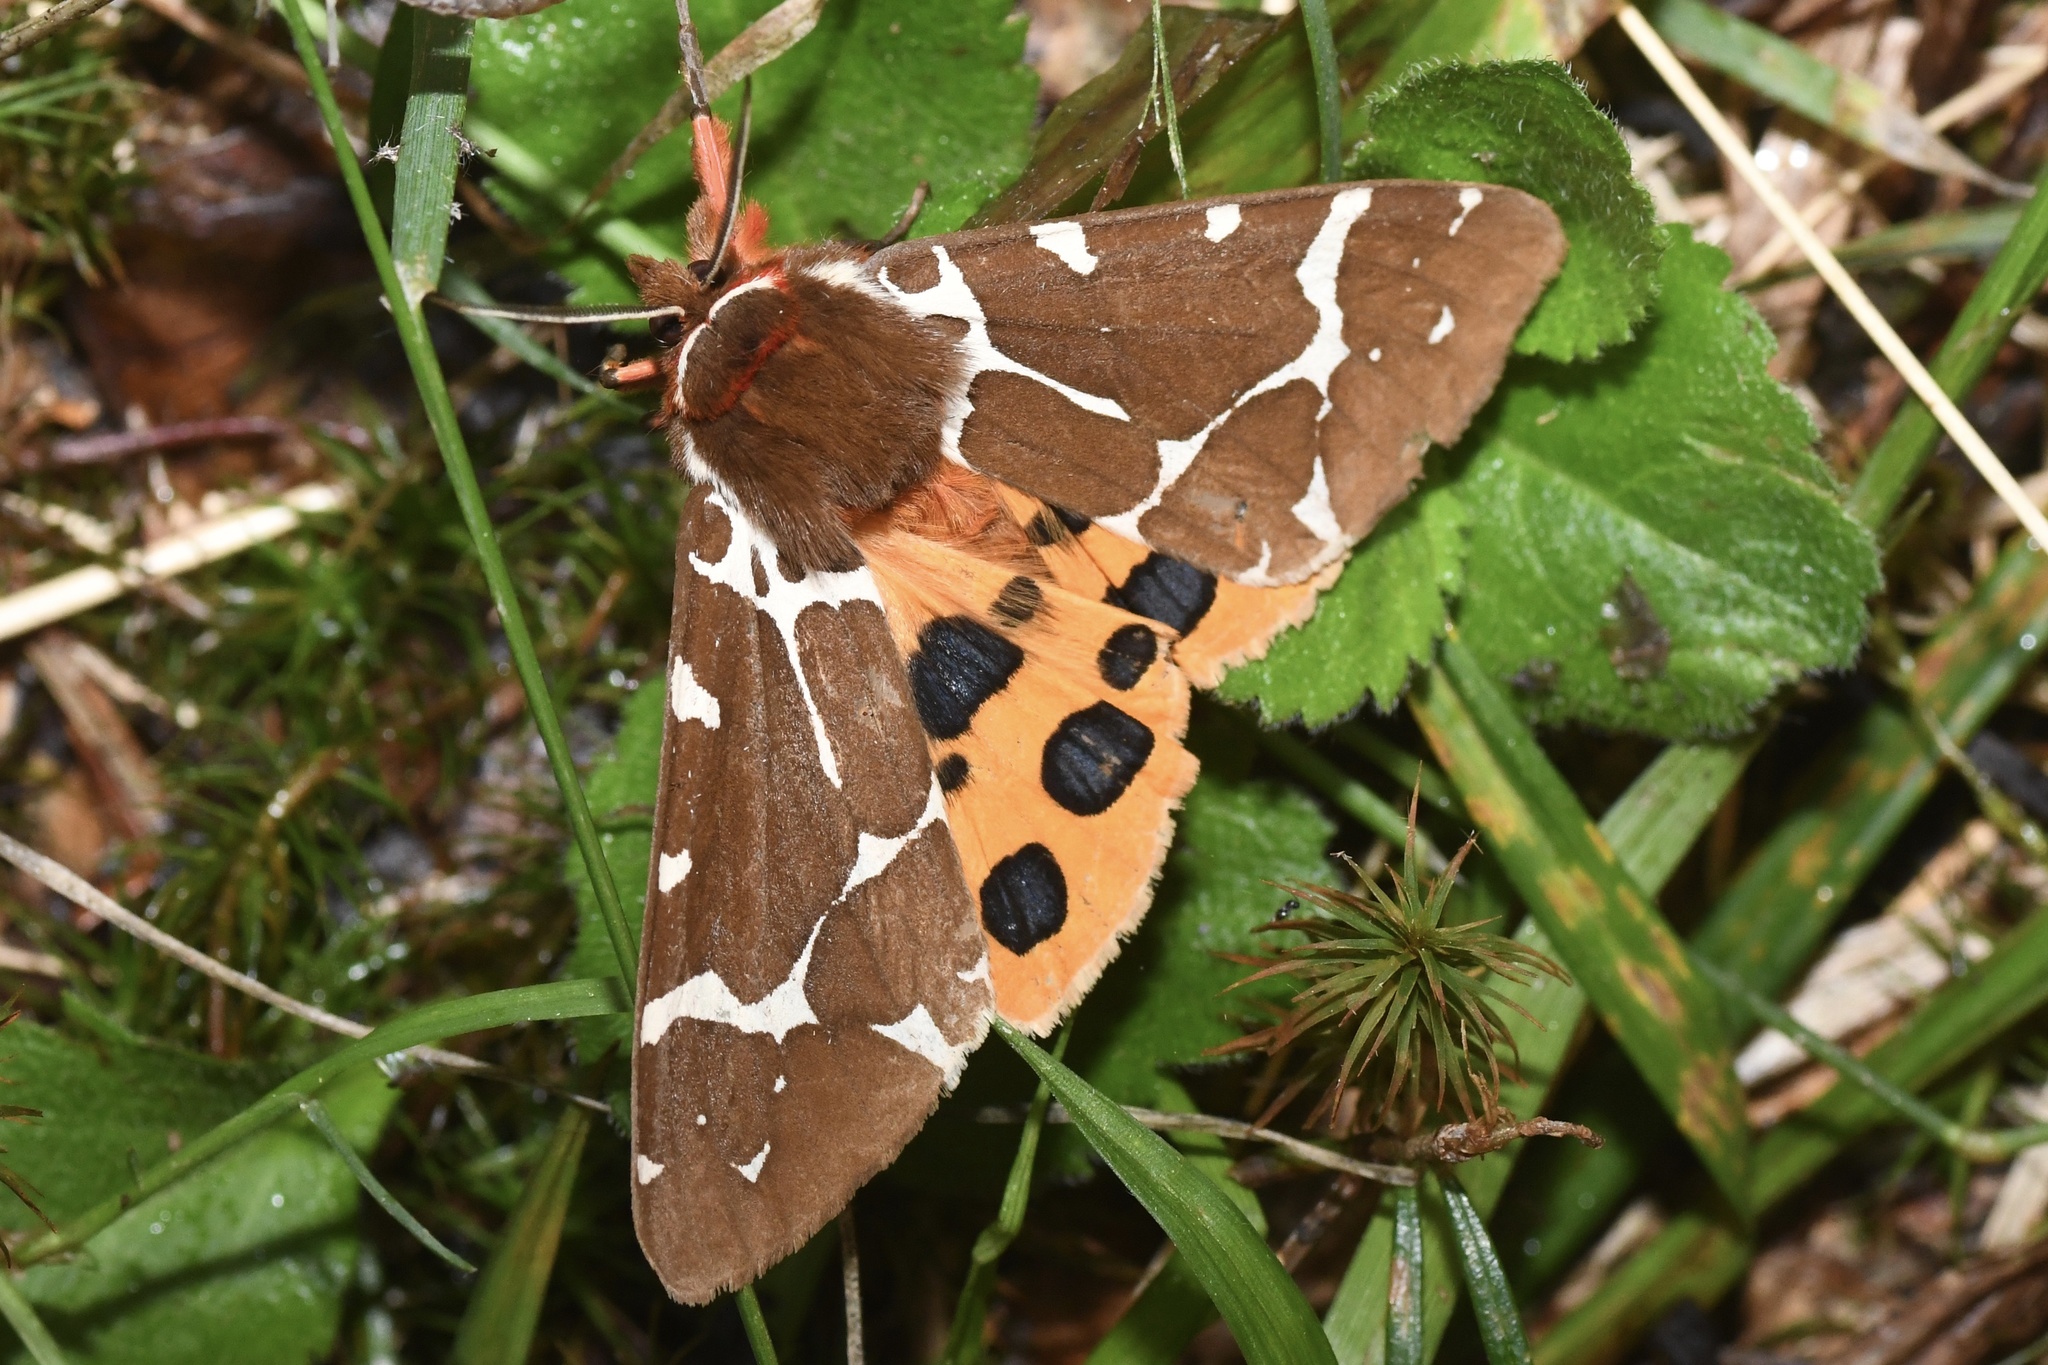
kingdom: Animalia
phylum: Arthropoda
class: Insecta
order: Lepidoptera
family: Erebidae
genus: Arctia
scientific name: Arctia caja
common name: Garden tiger
